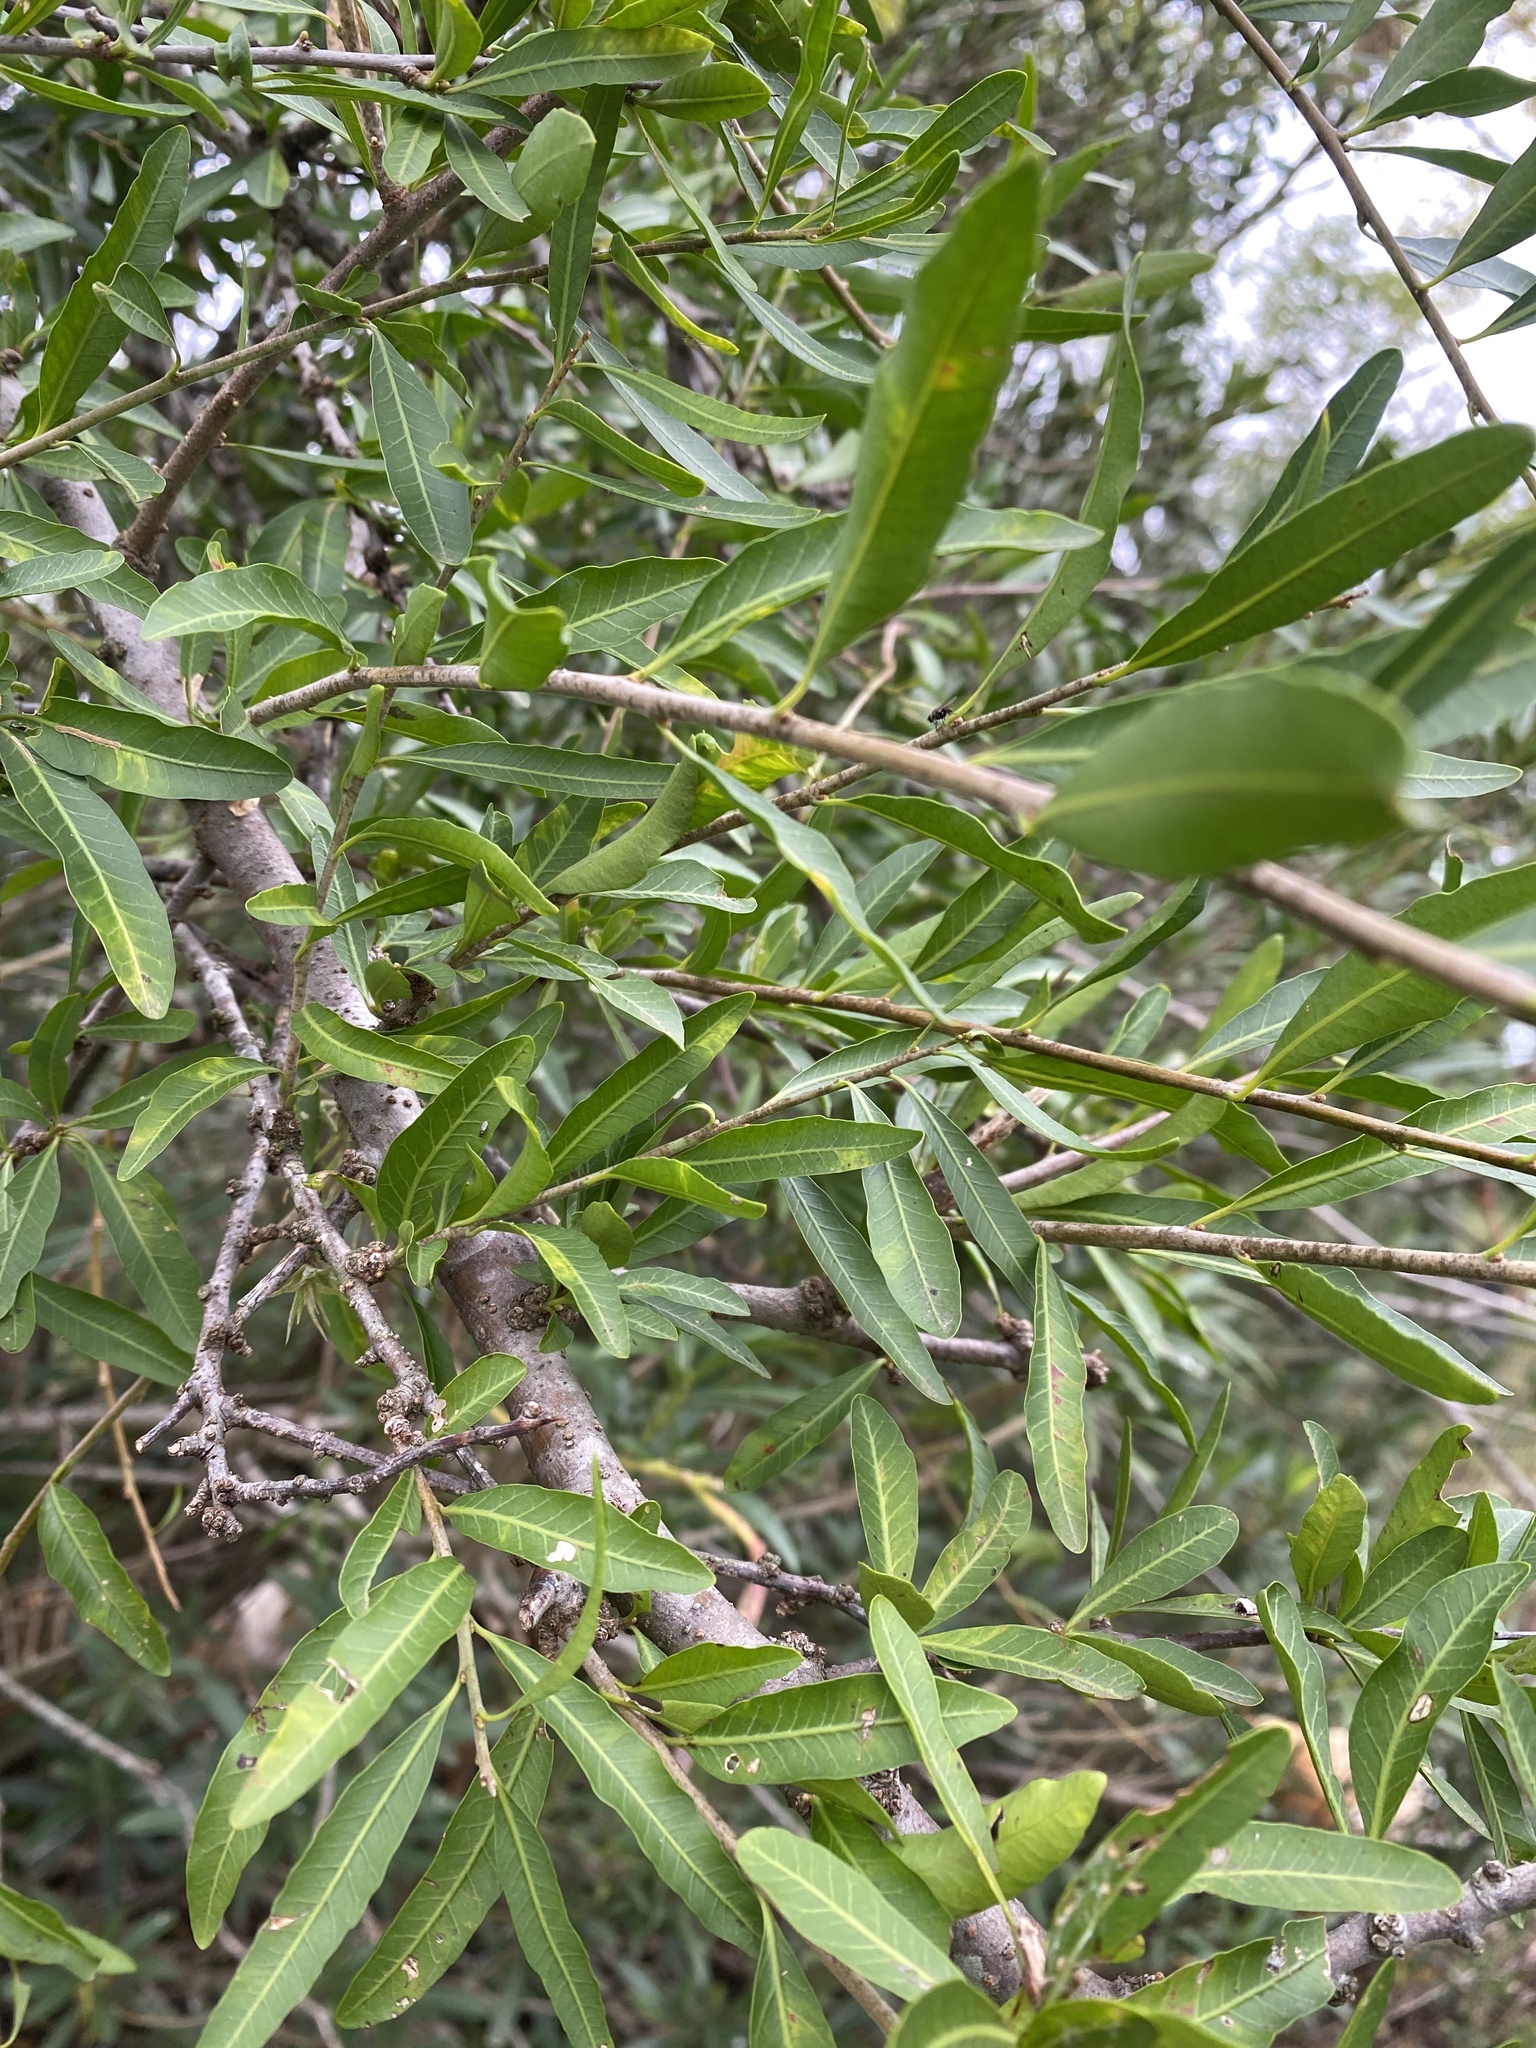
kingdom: Plantae
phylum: Tracheophyta
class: Magnoliopsida
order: Sapindales
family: Anacardiaceae
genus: Schinus
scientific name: Schinus longifolia
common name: Longleaf peppertree
